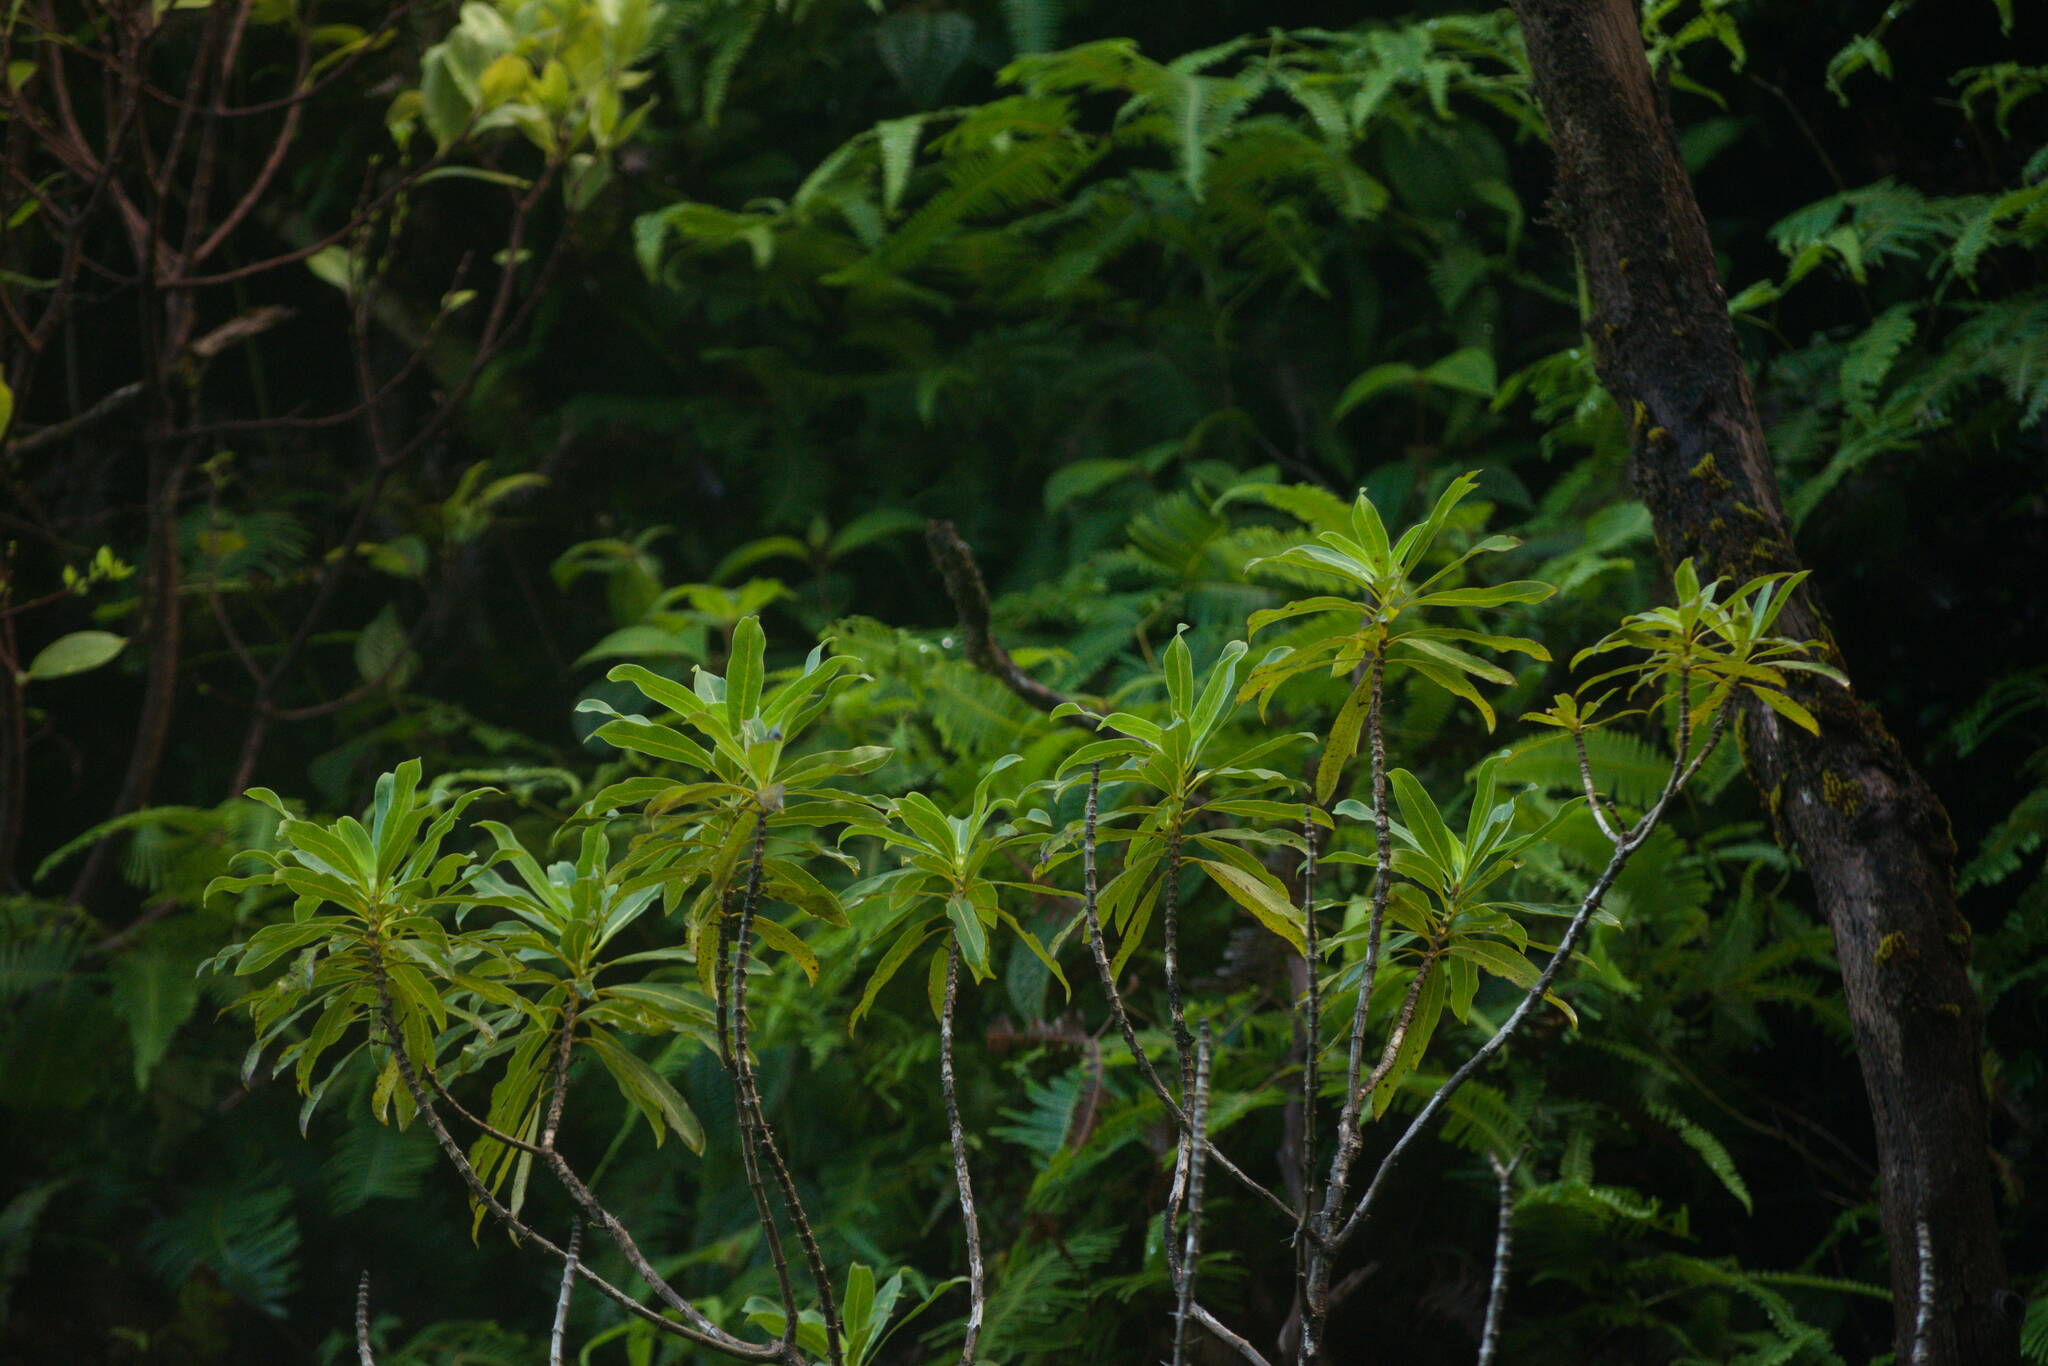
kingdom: Plantae
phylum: Tracheophyta
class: Magnoliopsida
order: Gentianales
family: Rubiaceae
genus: Coprosma
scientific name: Coprosma longifolia
